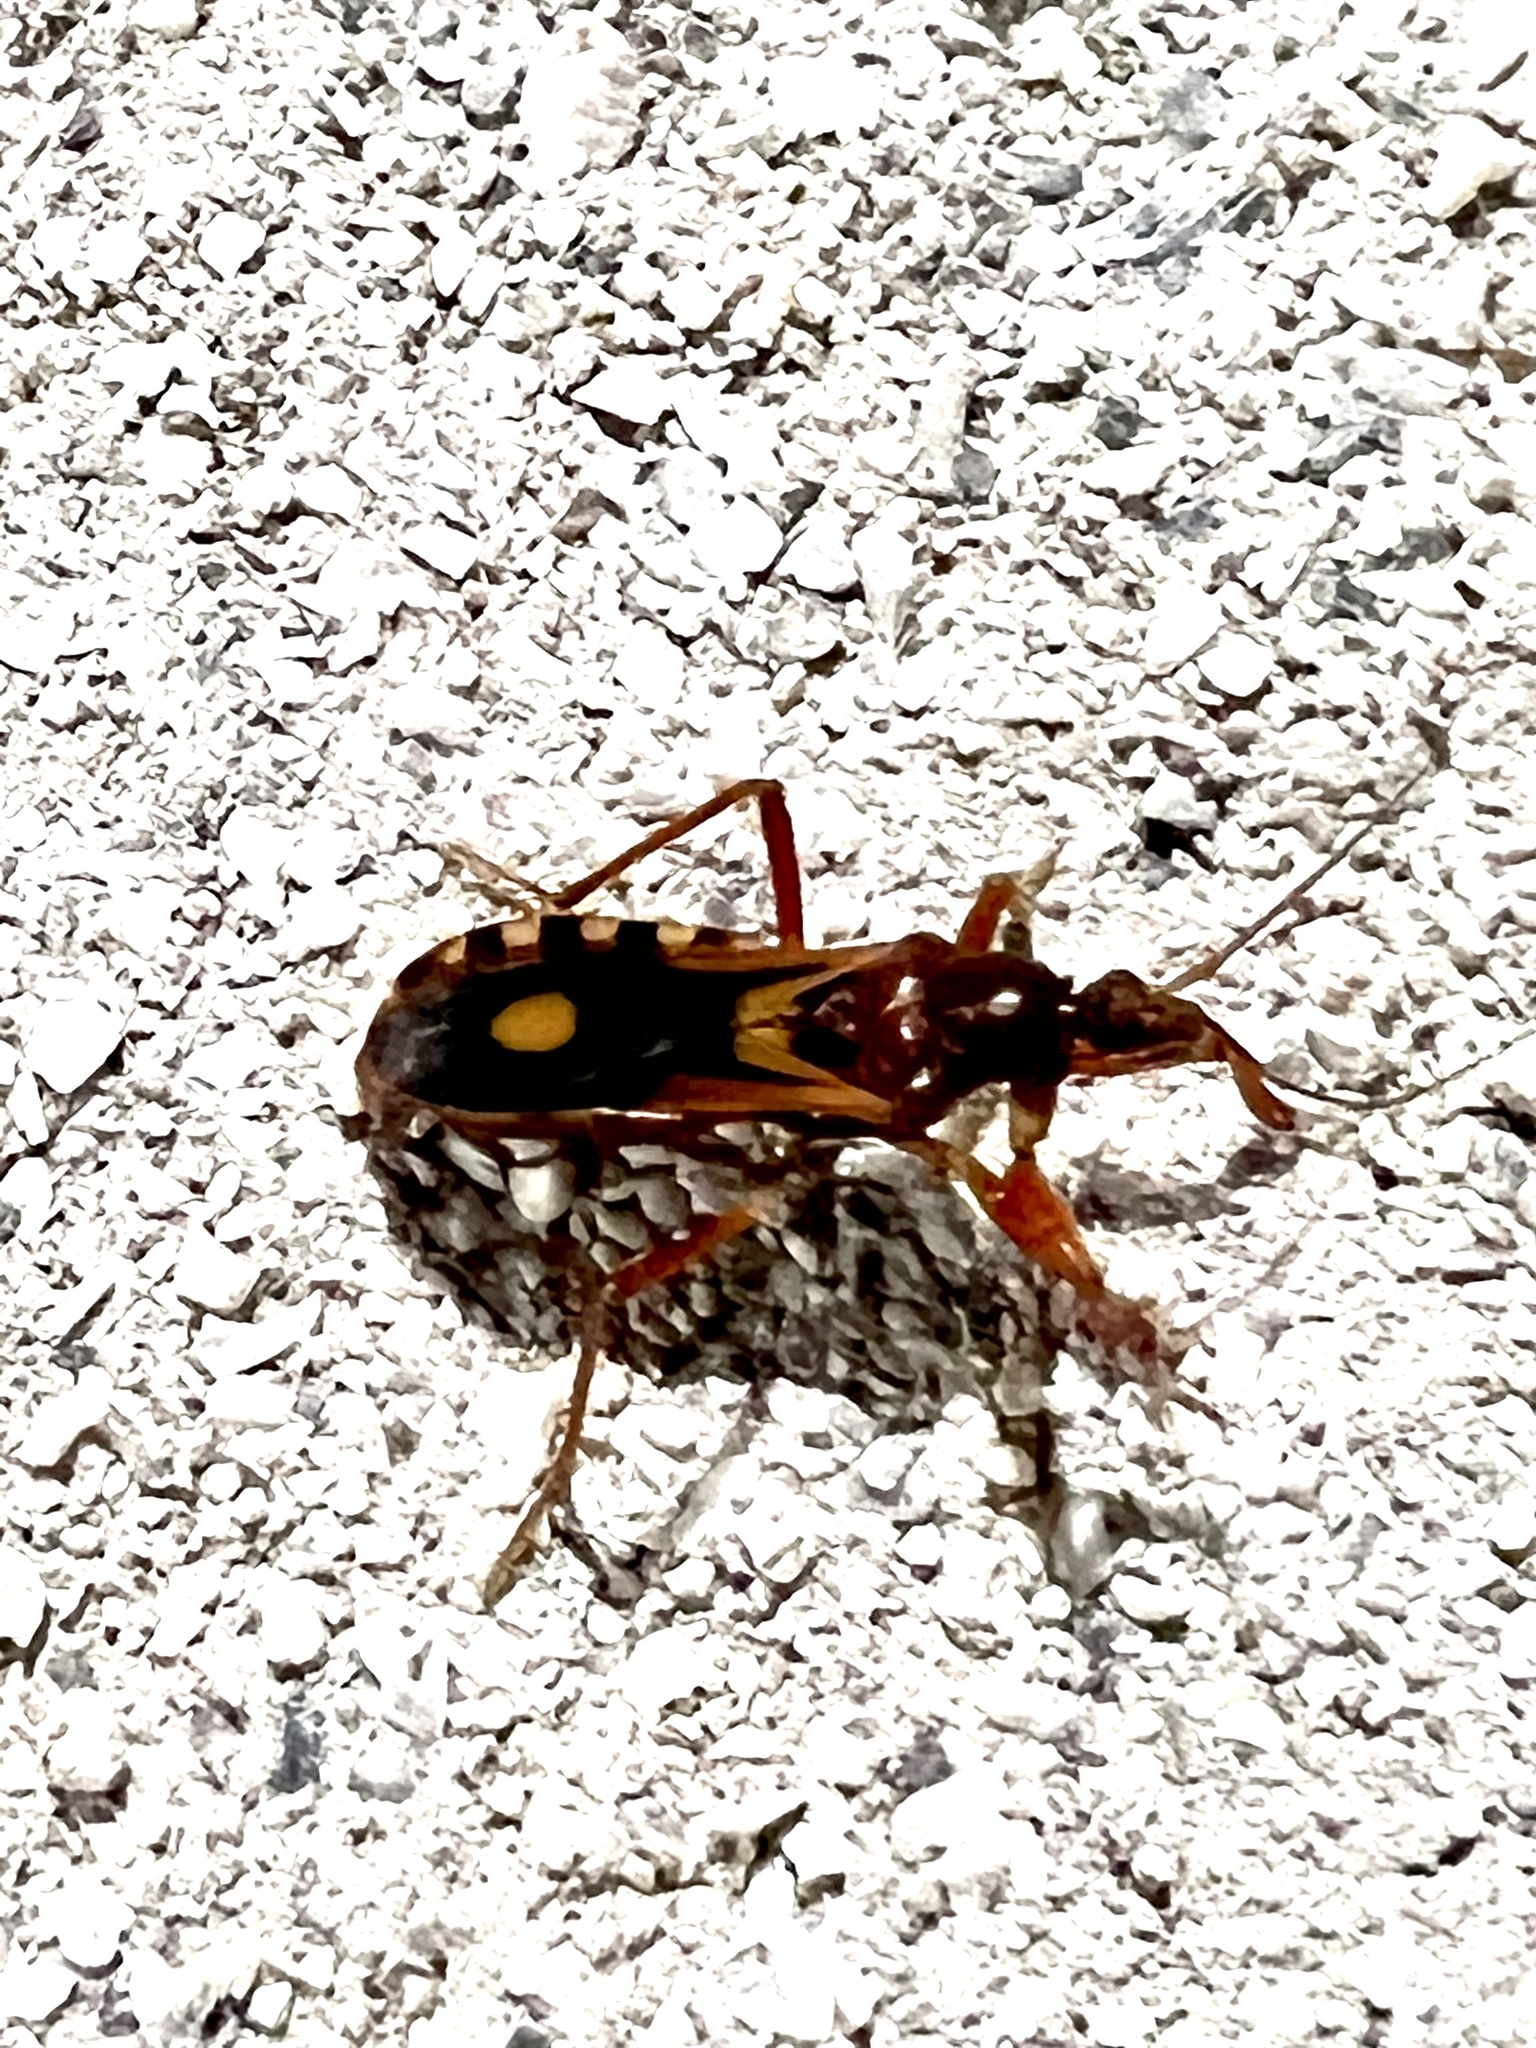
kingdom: Animalia
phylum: Arthropoda
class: Insecta
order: Hemiptera
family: Reduviidae
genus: Rasahus
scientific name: Rasahus thoracicus
